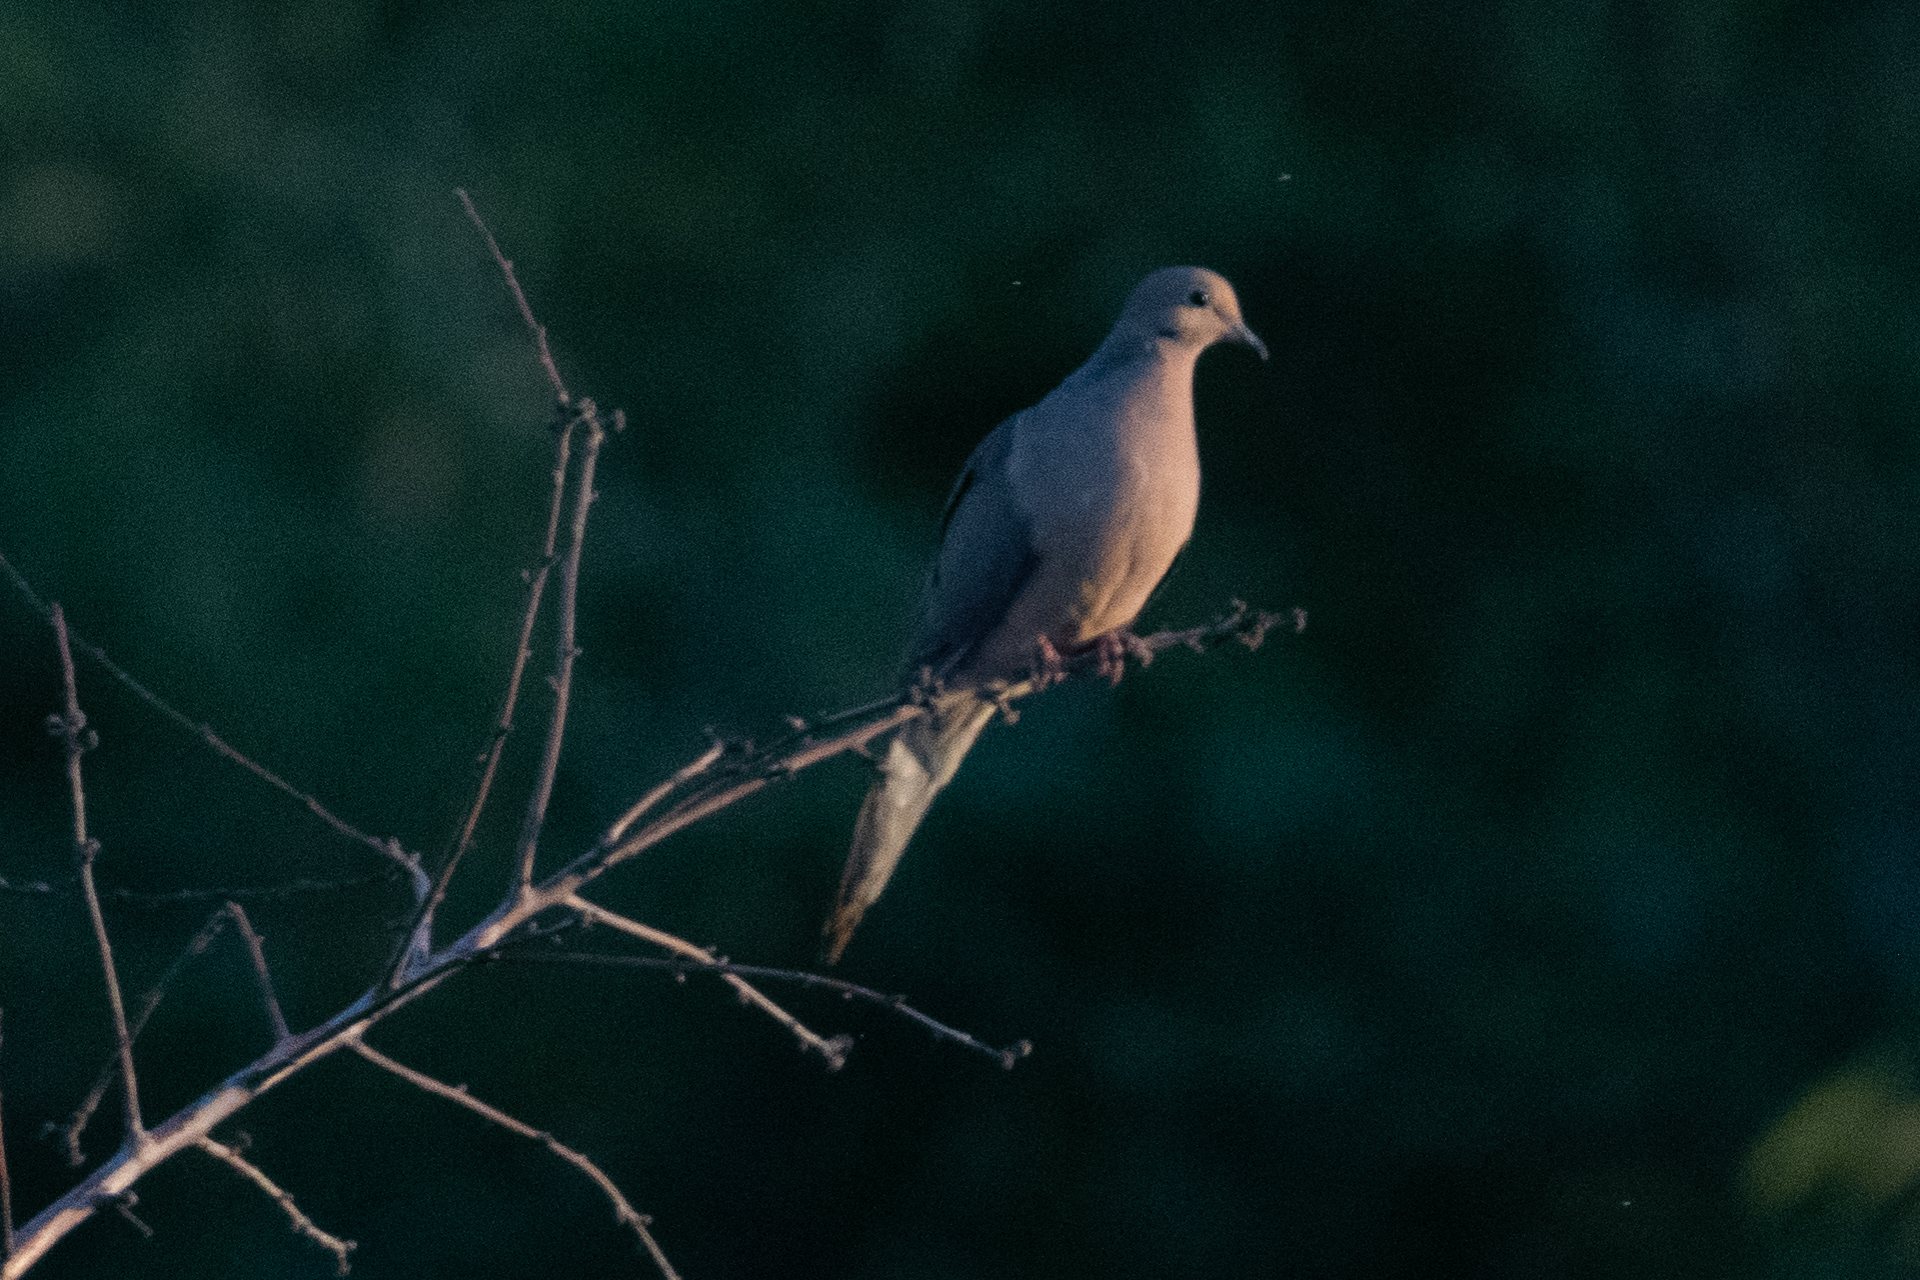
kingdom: Animalia
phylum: Chordata
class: Aves
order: Columbiformes
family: Columbidae
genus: Zenaida
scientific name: Zenaida macroura
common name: Mourning dove
